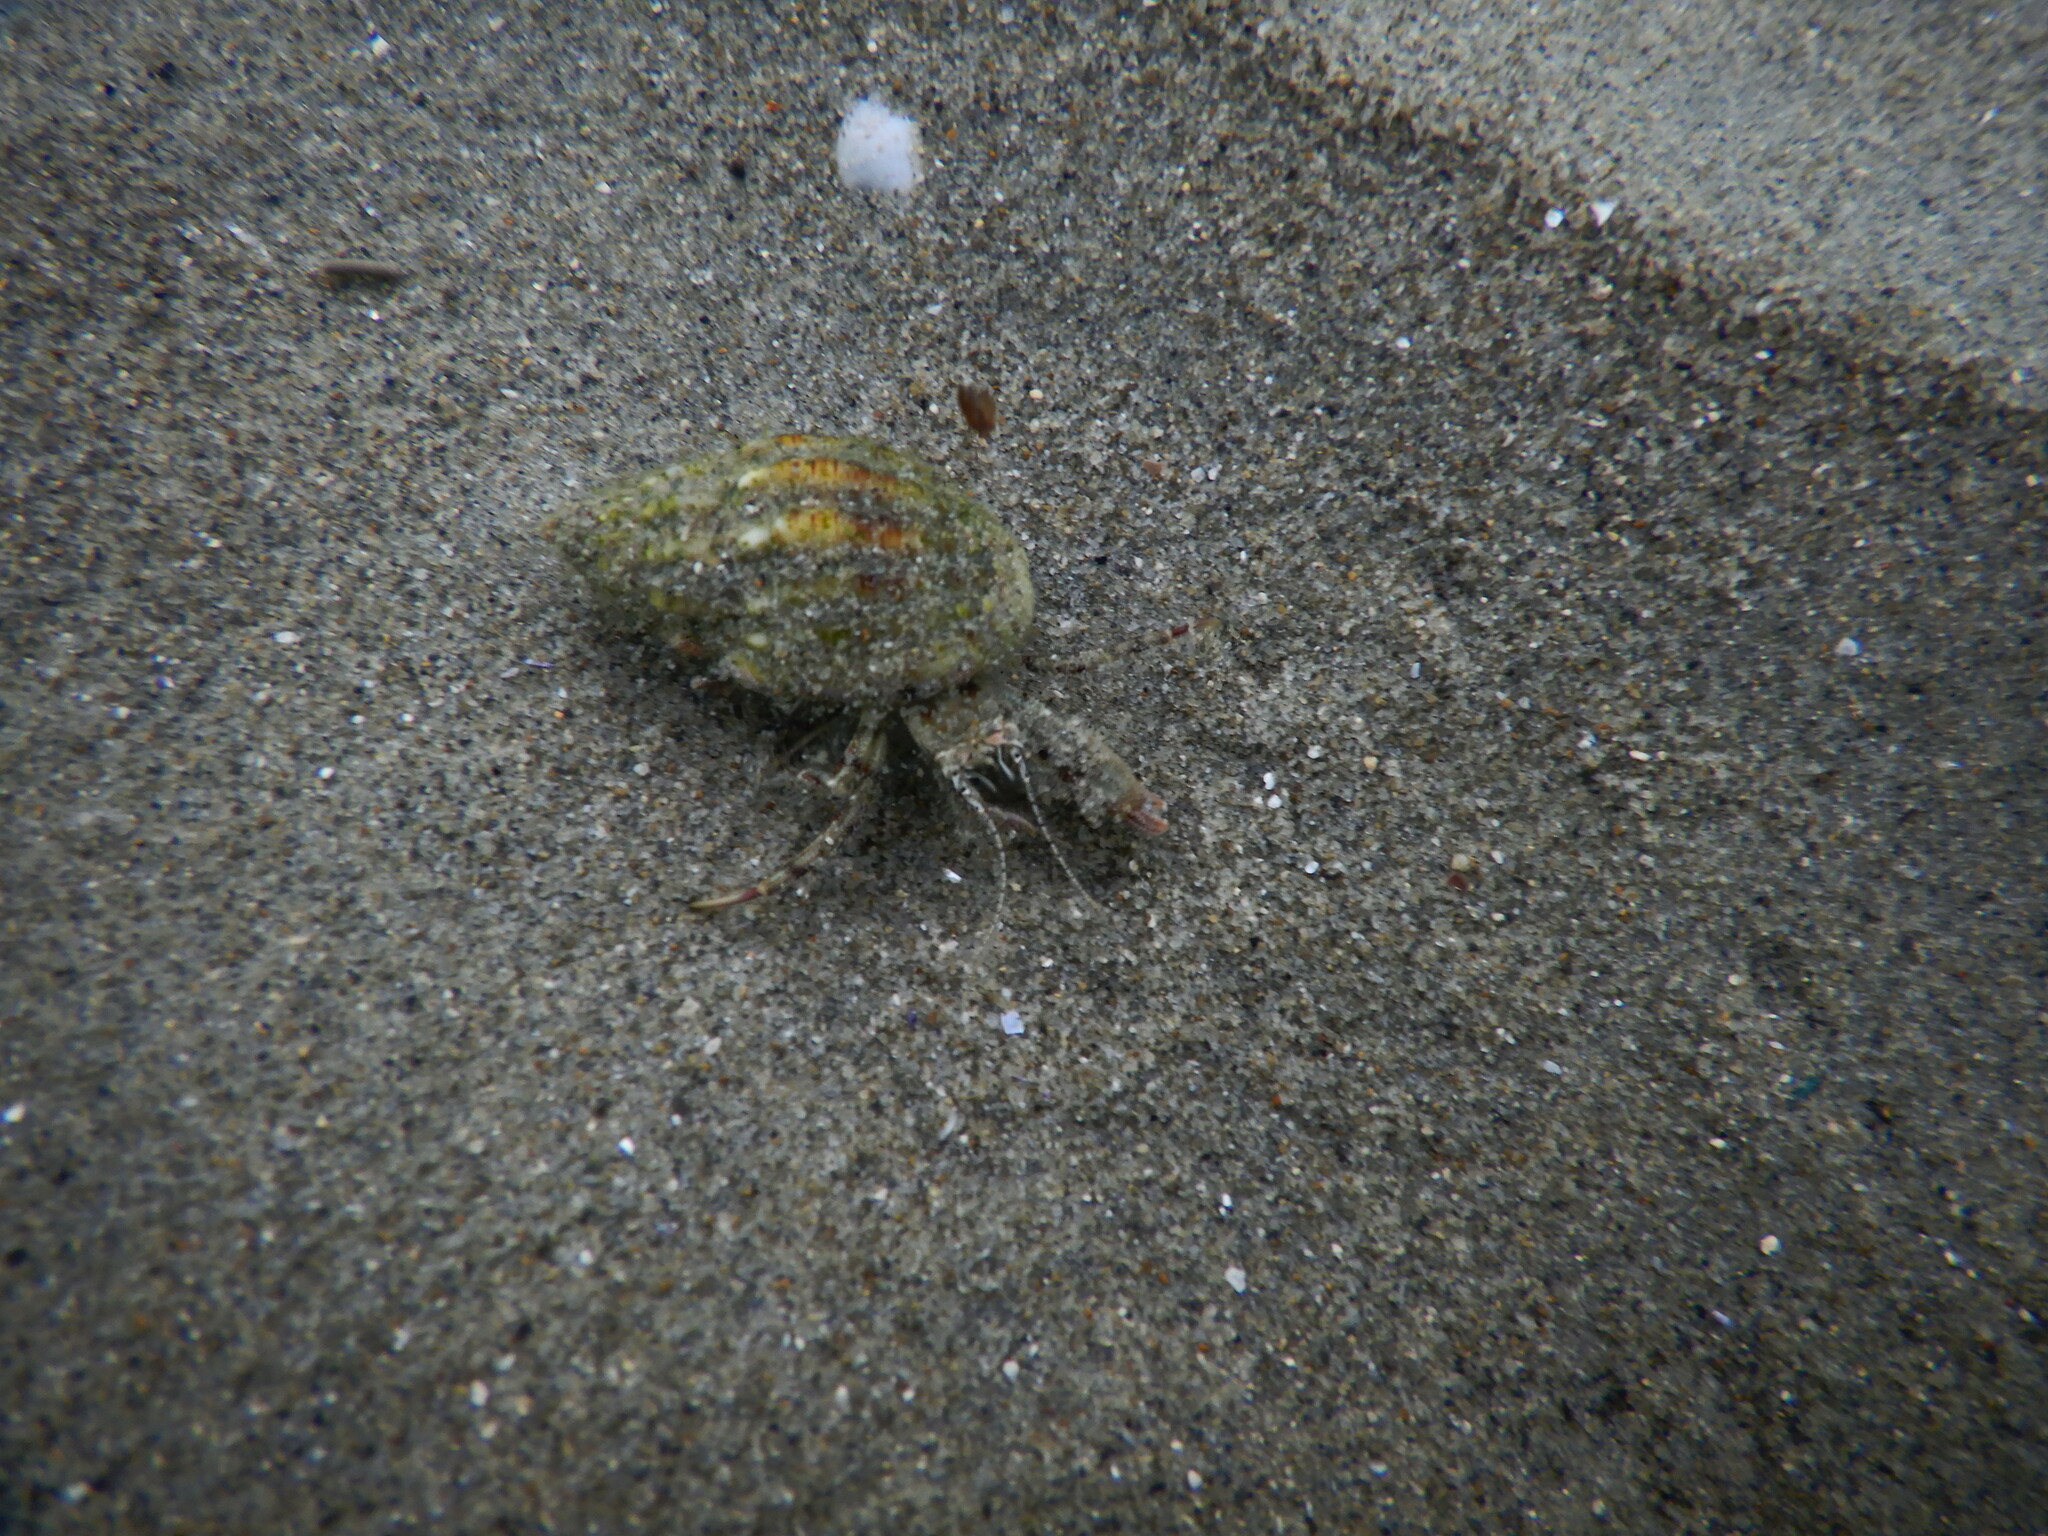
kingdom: Animalia
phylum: Arthropoda
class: Malacostraca
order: Decapoda
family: Diogenidae
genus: Diogenes
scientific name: Diogenes pugilator
